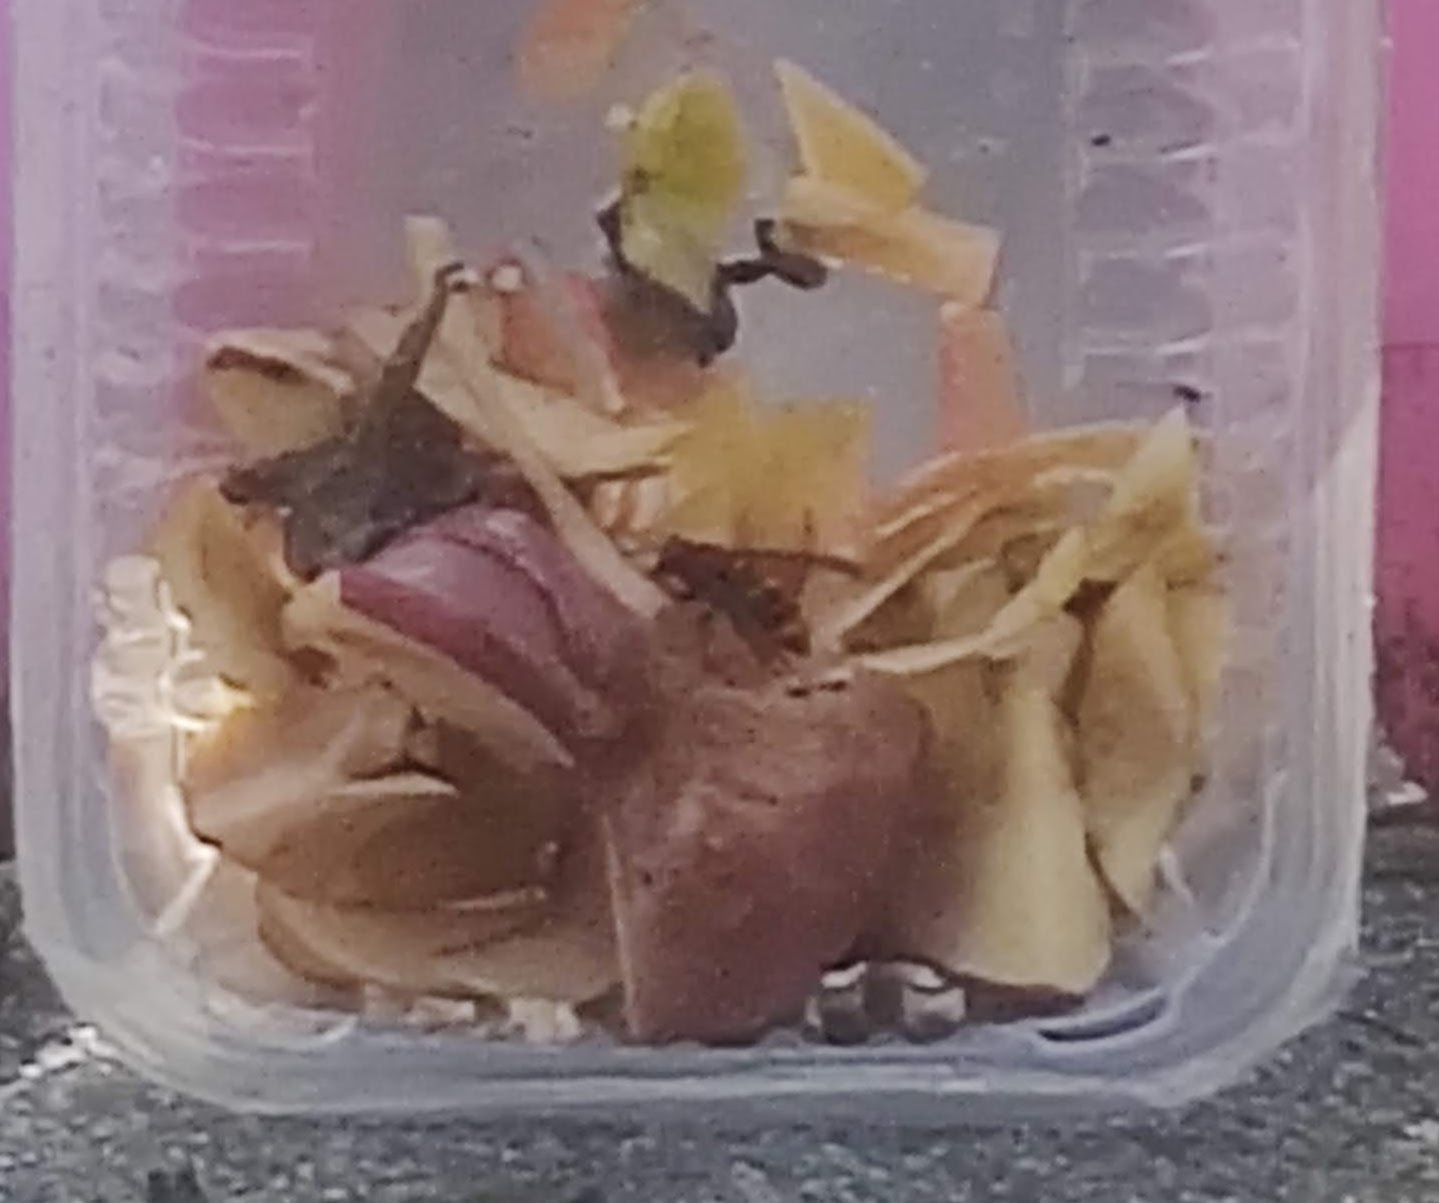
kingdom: Animalia
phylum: Arthropoda
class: Insecta
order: Hymenoptera
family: Vespidae
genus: Vespa
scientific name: Vespa velutina
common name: Asian hornet
